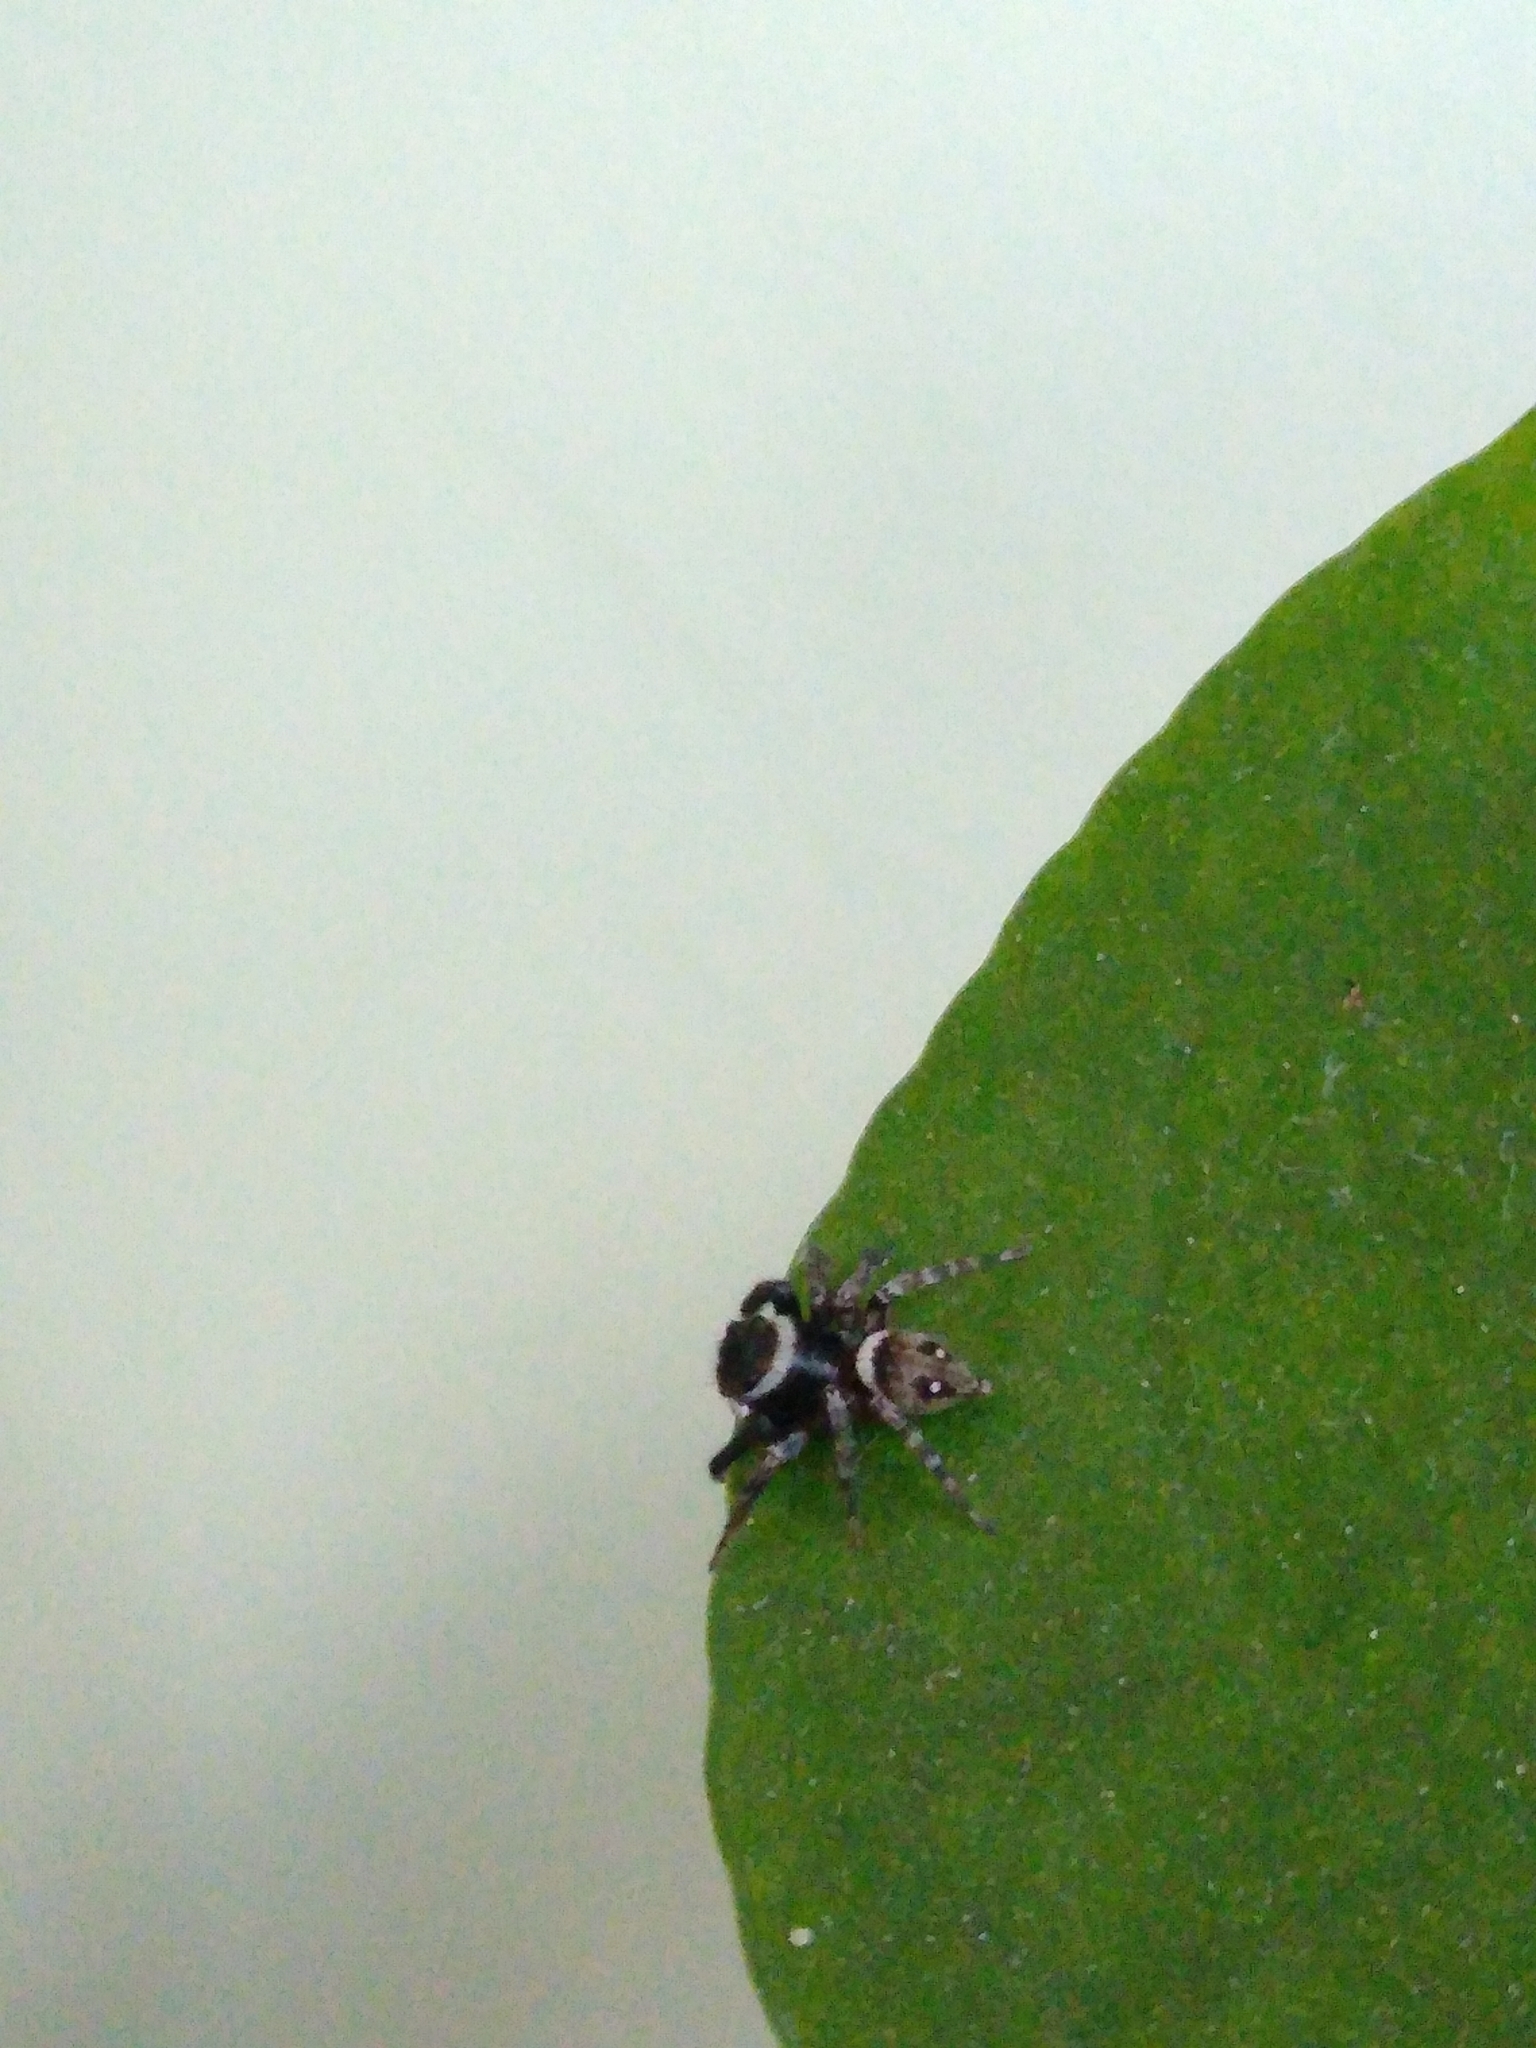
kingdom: Animalia
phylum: Arthropoda
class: Arachnida
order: Araneae
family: Salticidae
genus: Hasarius
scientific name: Hasarius adansoni
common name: Jumping spider
